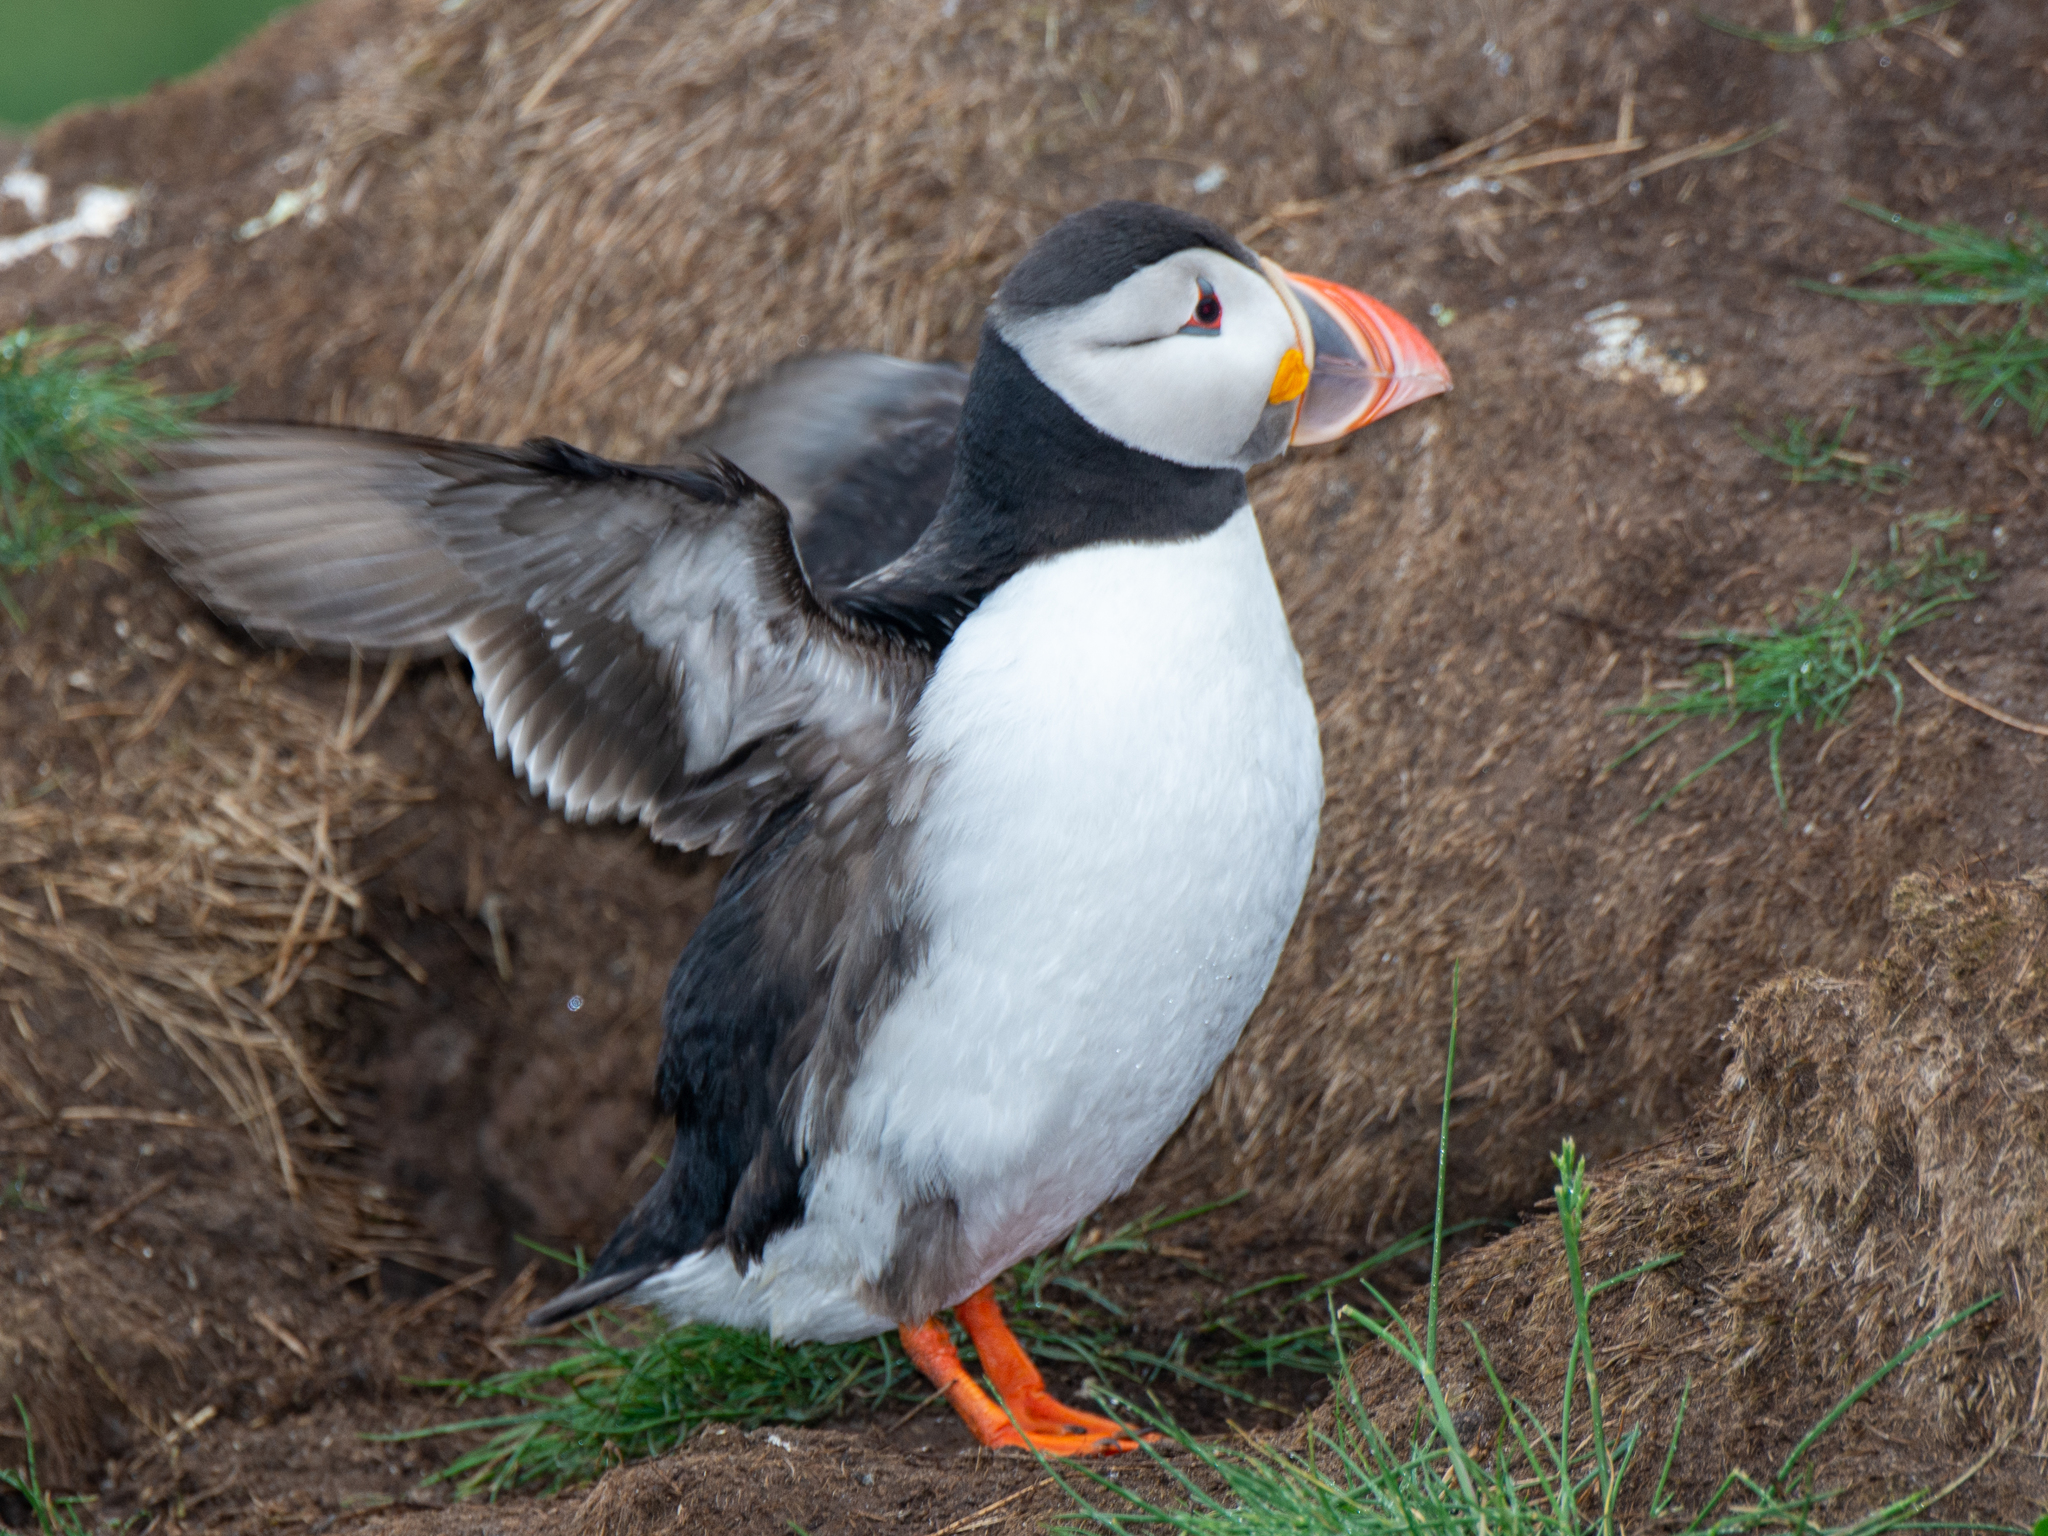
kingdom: Animalia
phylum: Chordata
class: Aves
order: Charadriiformes
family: Alcidae
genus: Fratercula
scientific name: Fratercula arctica
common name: Atlantic puffin
